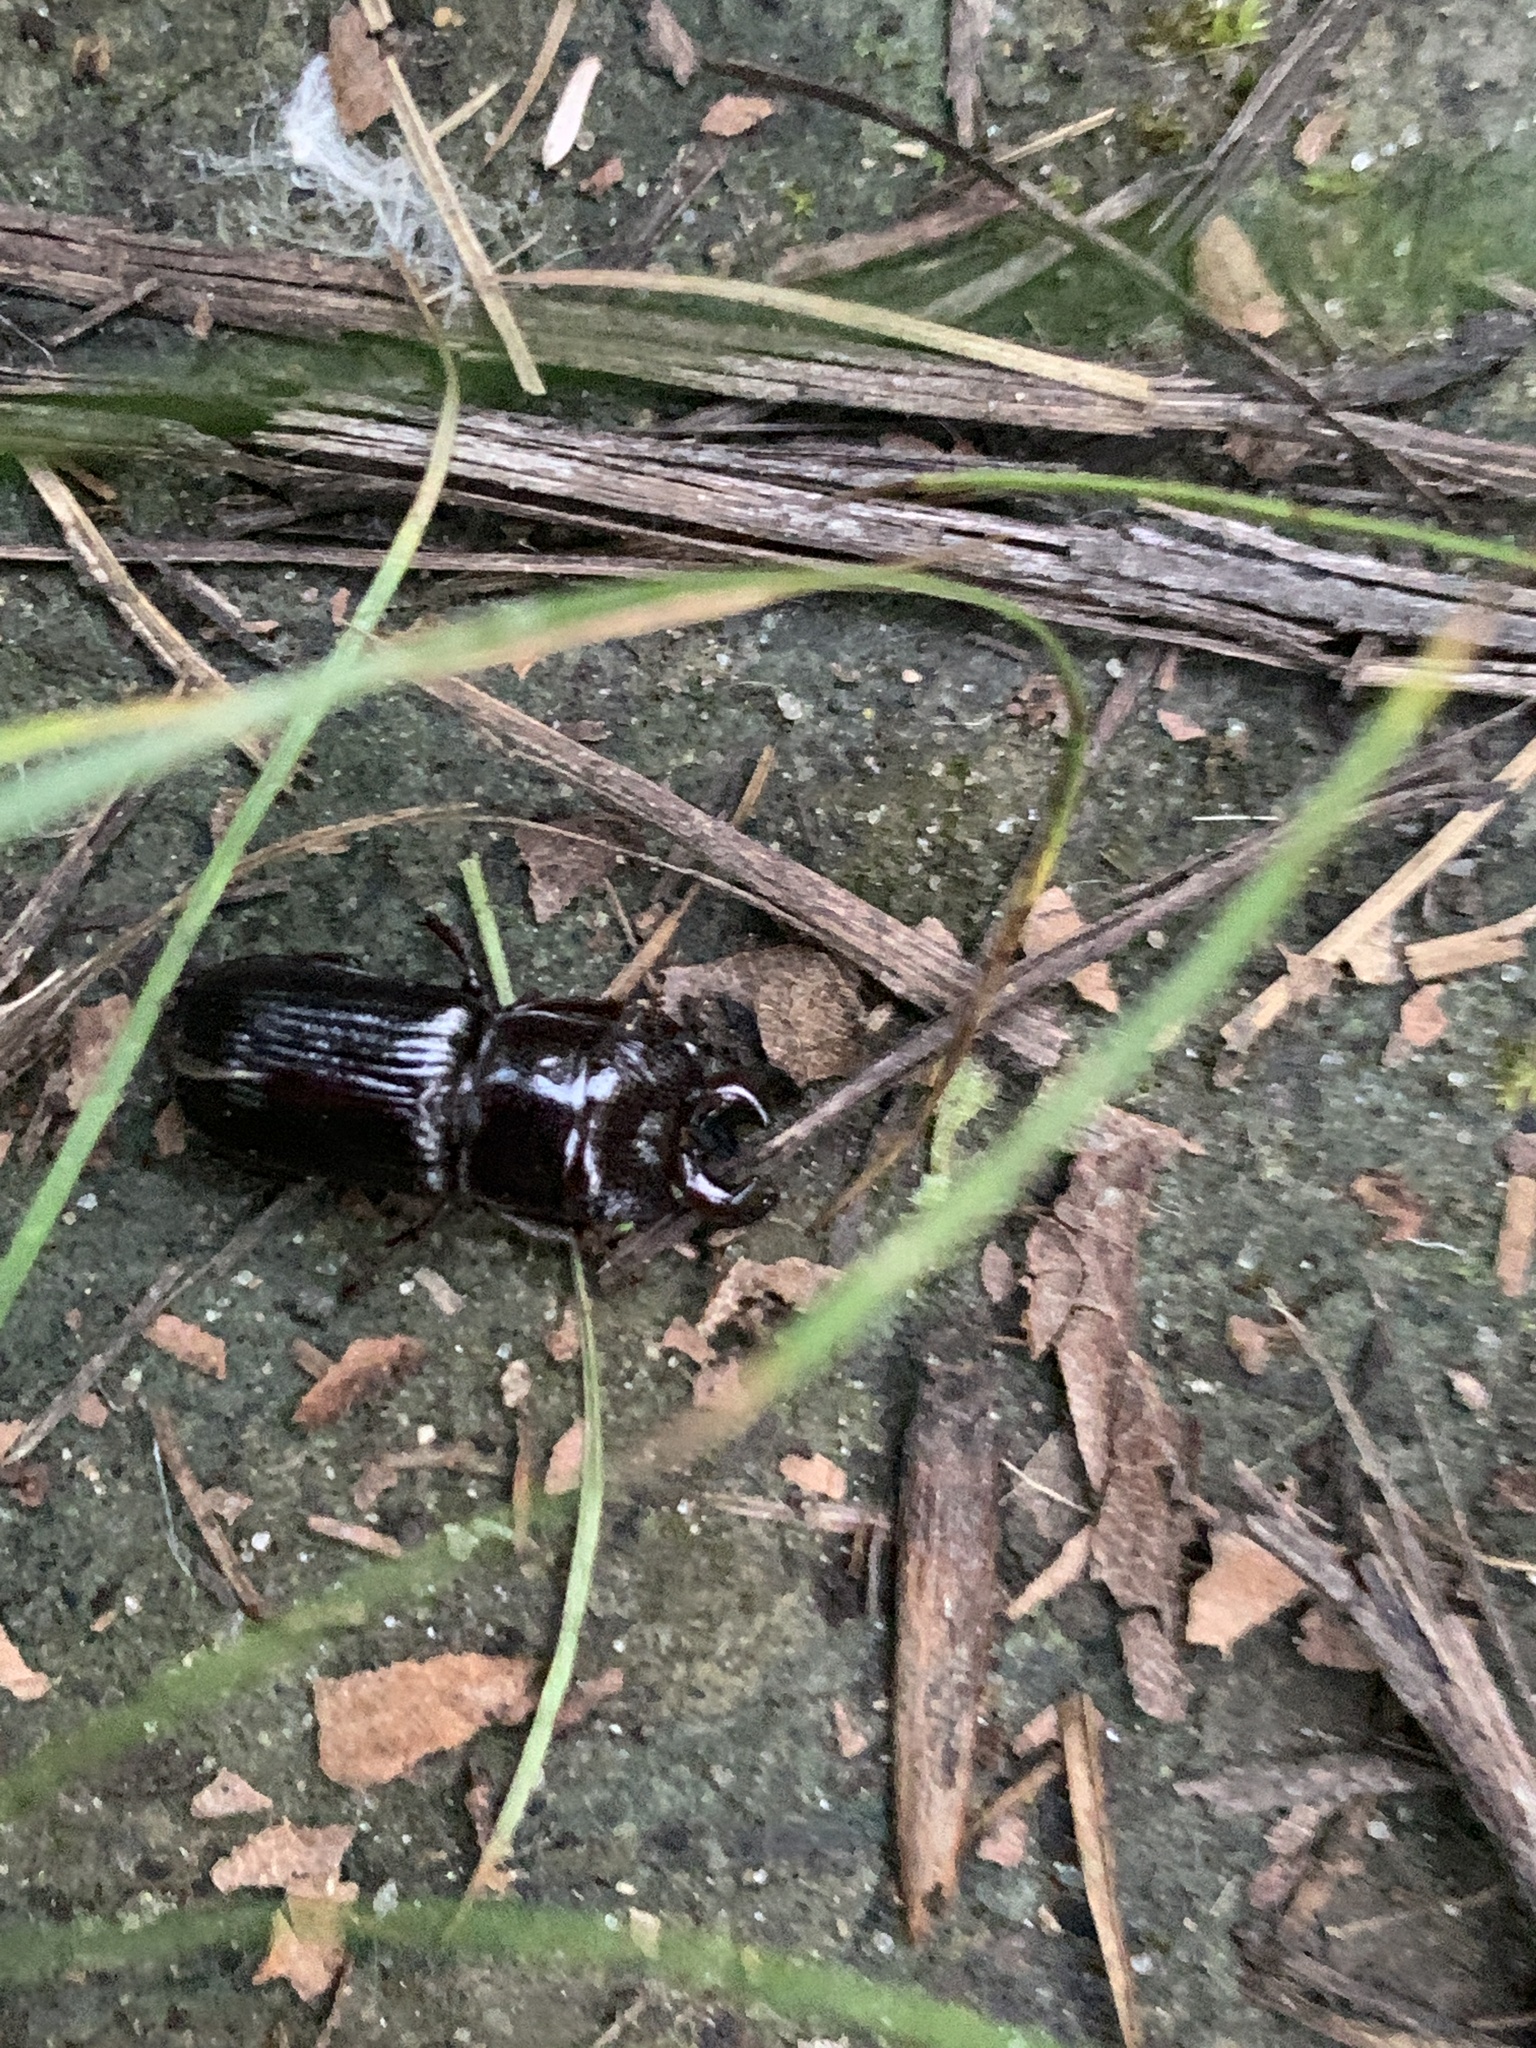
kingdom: Animalia
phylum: Arthropoda
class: Insecta
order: Coleoptera
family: Lucanidae
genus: Ceruchus
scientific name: Ceruchus piceus
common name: Red-rot decay stag beetle
